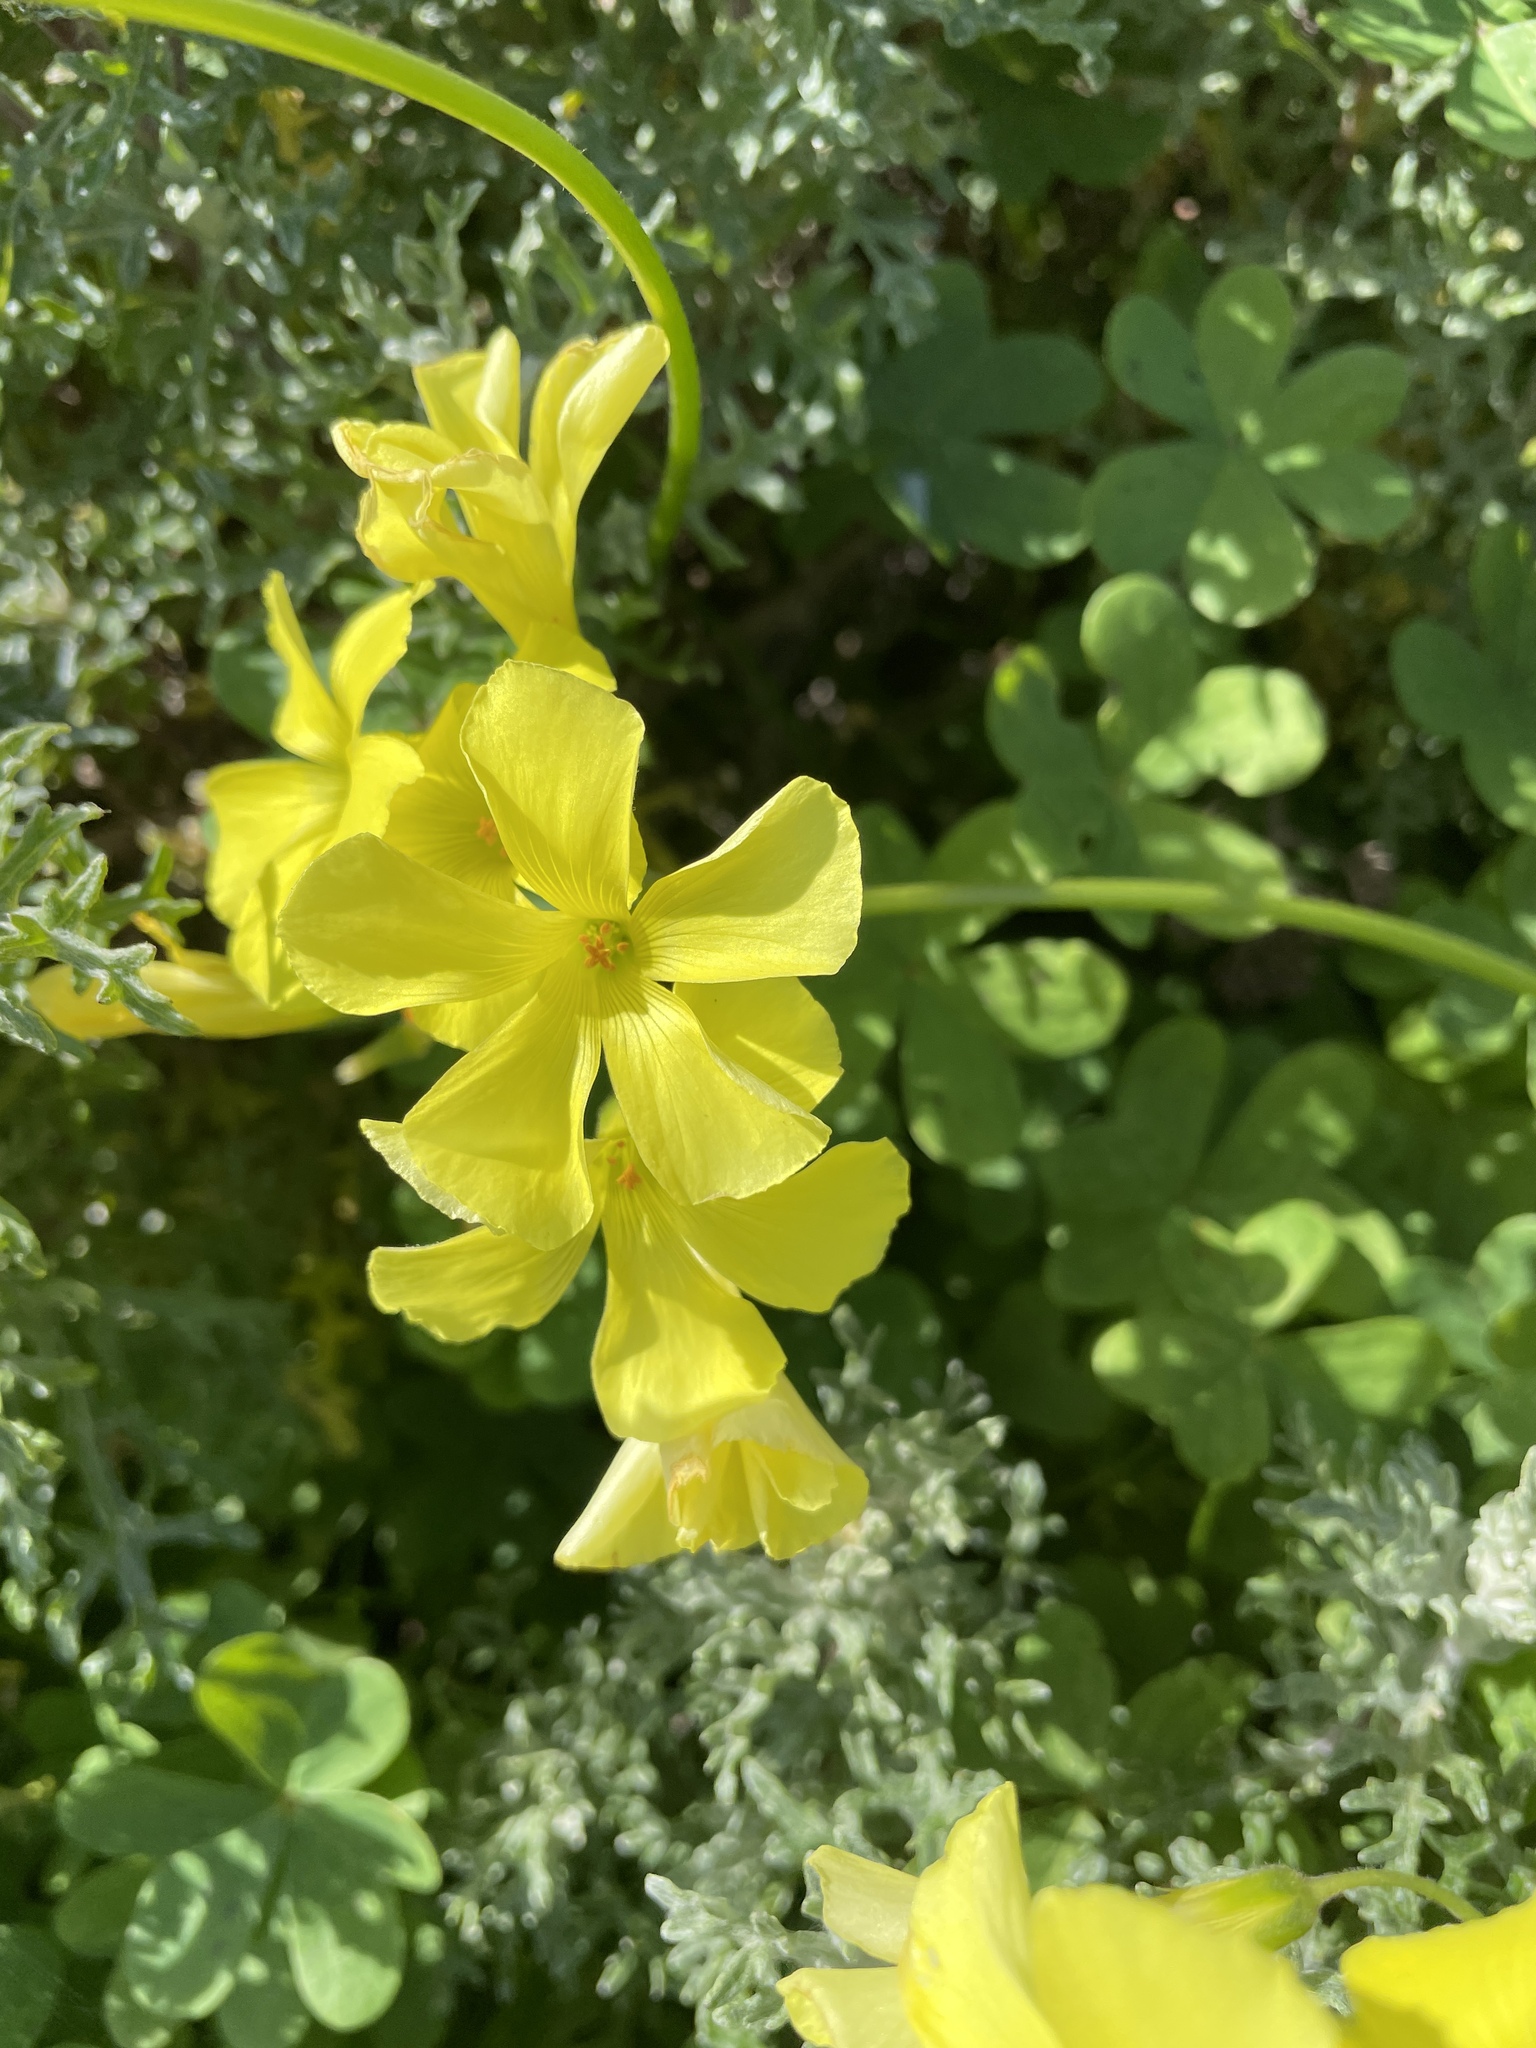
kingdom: Plantae
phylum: Tracheophyta
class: Magnoliopsida
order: Oxalidales
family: Oxalidaceae
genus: Oxalis
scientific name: Oxalis pes-caprae
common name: Bermuda-buttercup
